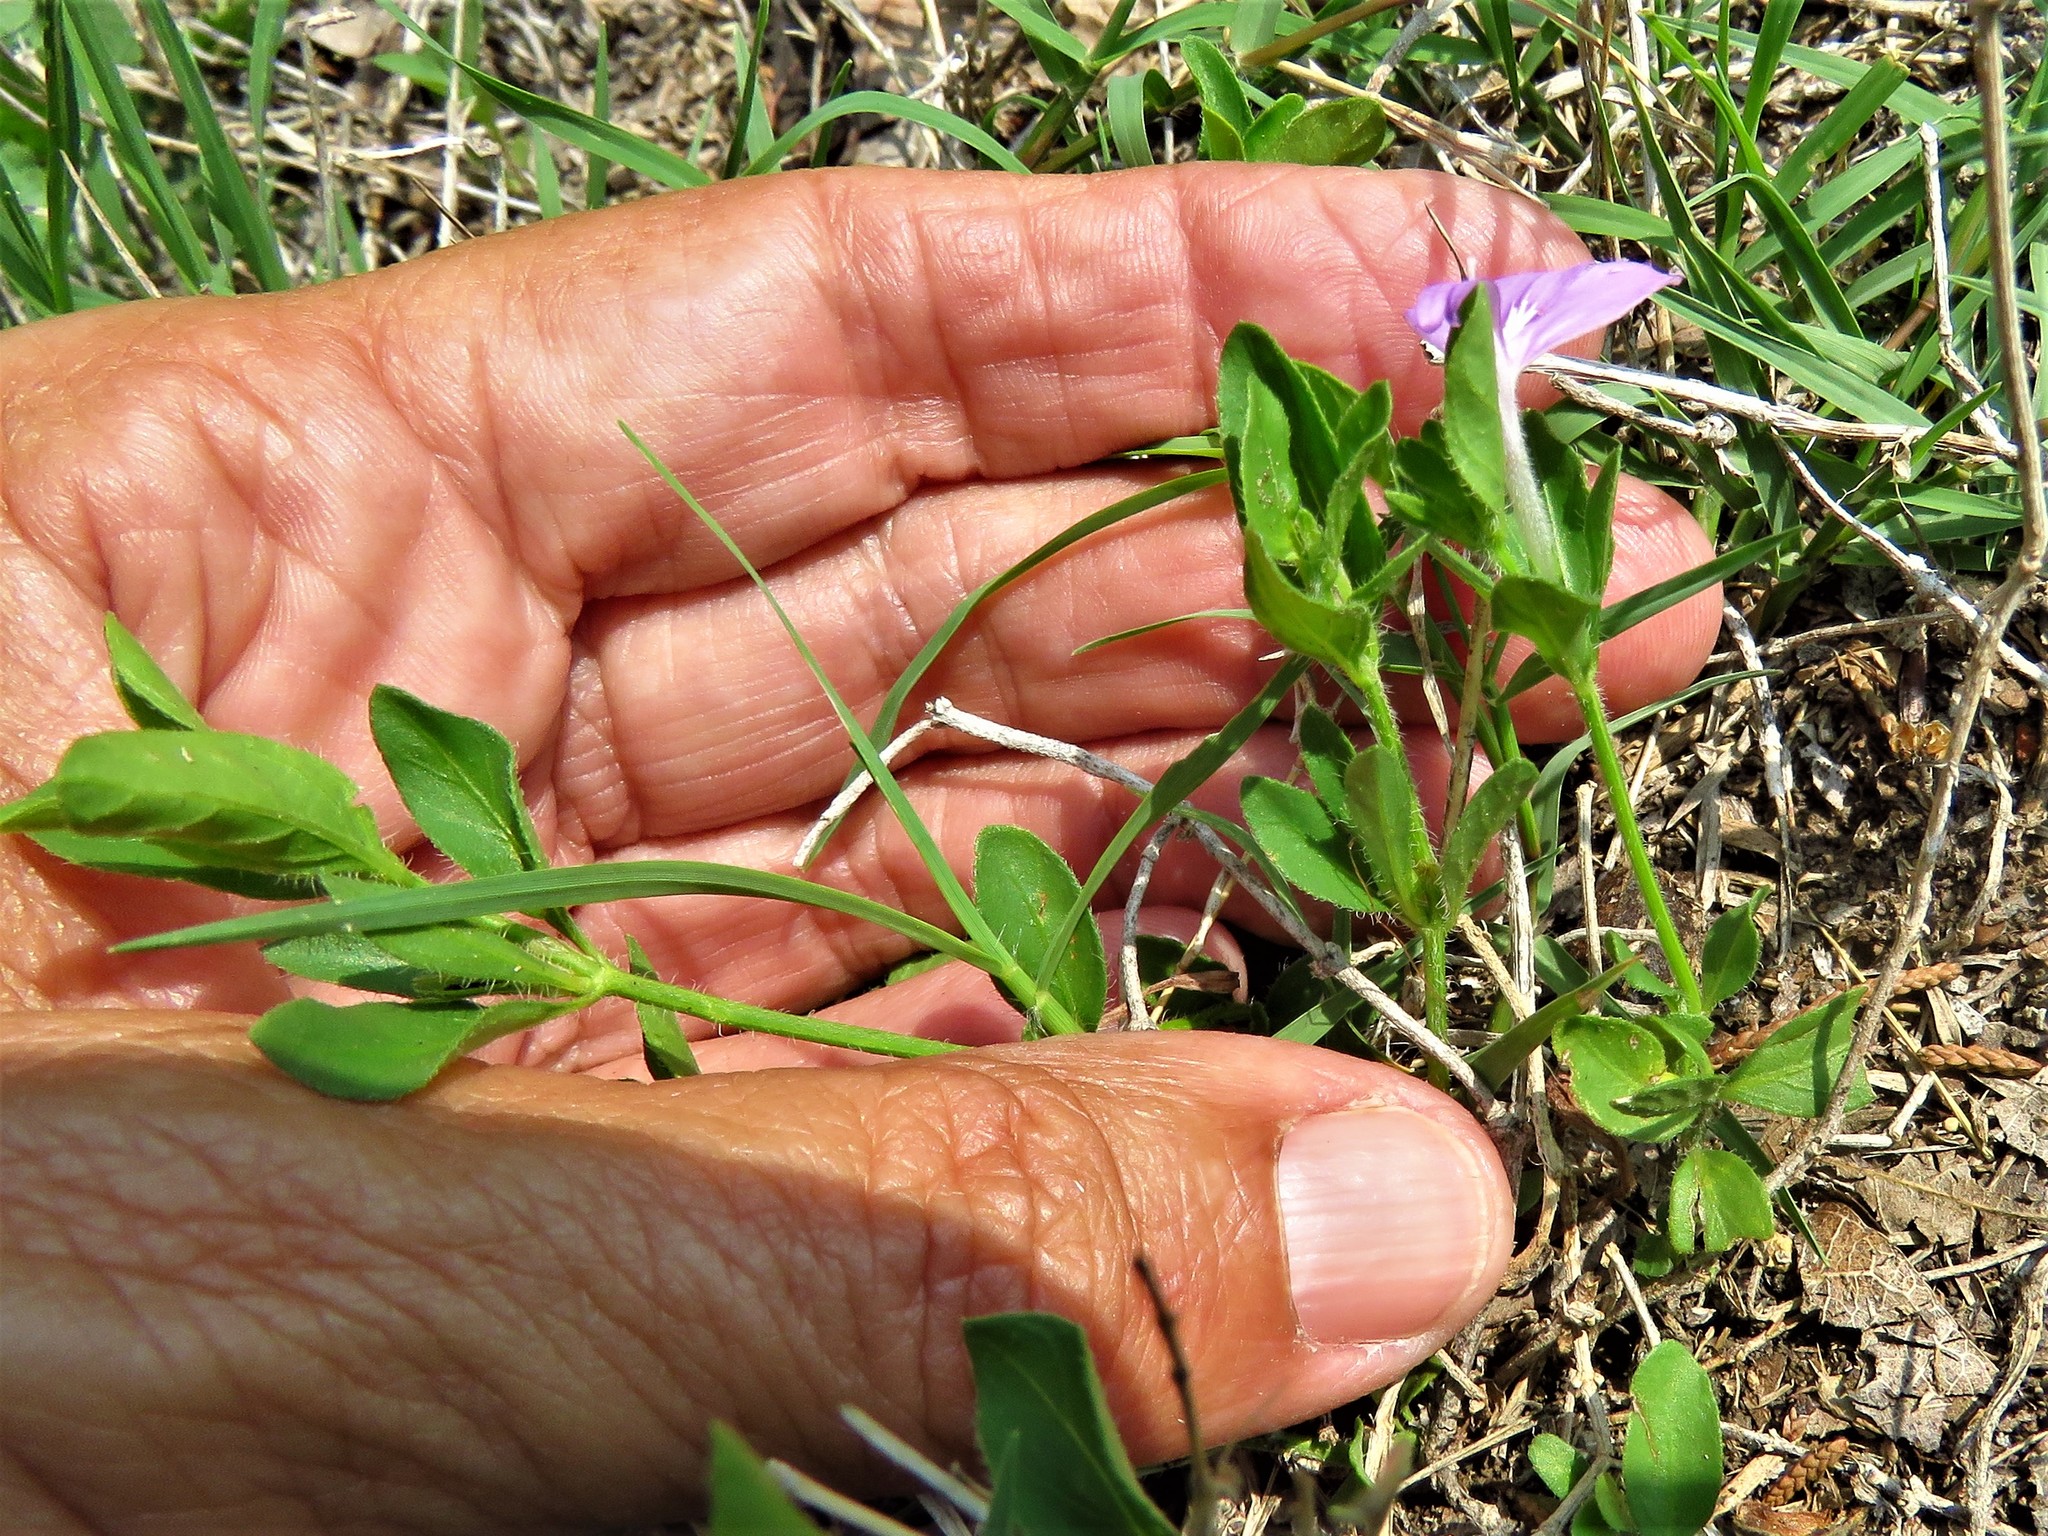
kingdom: Plantae
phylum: Tracheophyta
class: Magnoliopsida
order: Lamiales
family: Acanthaceae
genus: Justicia
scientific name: Justicia pilosella
